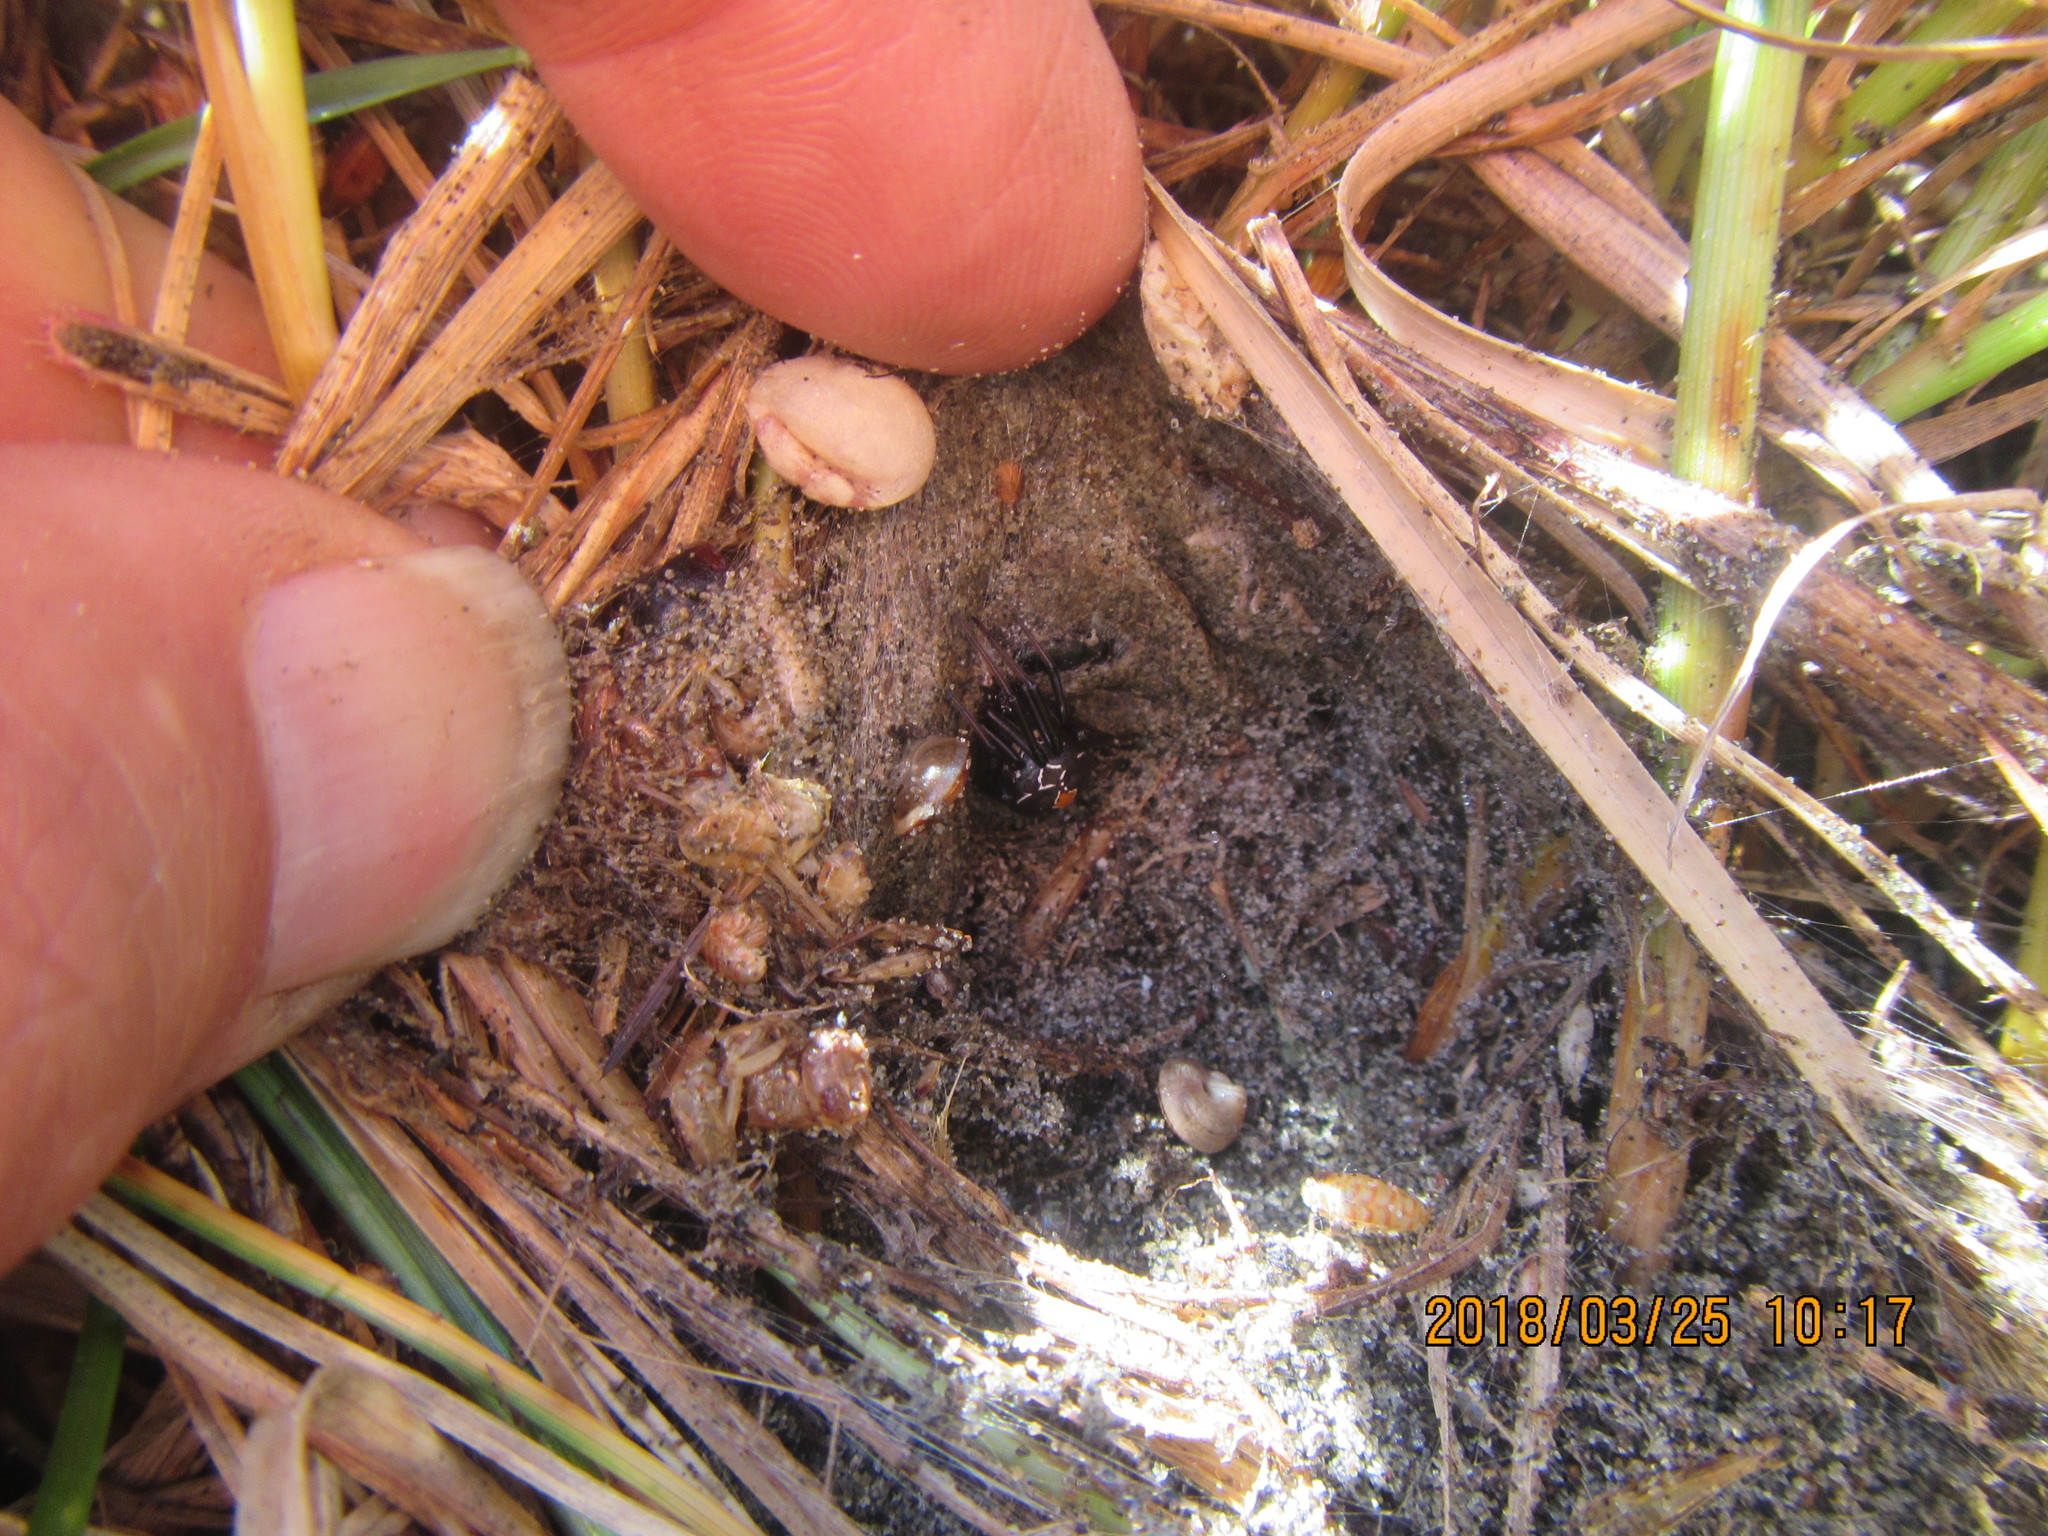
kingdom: Animalia
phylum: Arthropoda
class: Arachnida
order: Araneae
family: Theridiidae
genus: Latrodectus
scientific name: Latrodectus katipo
